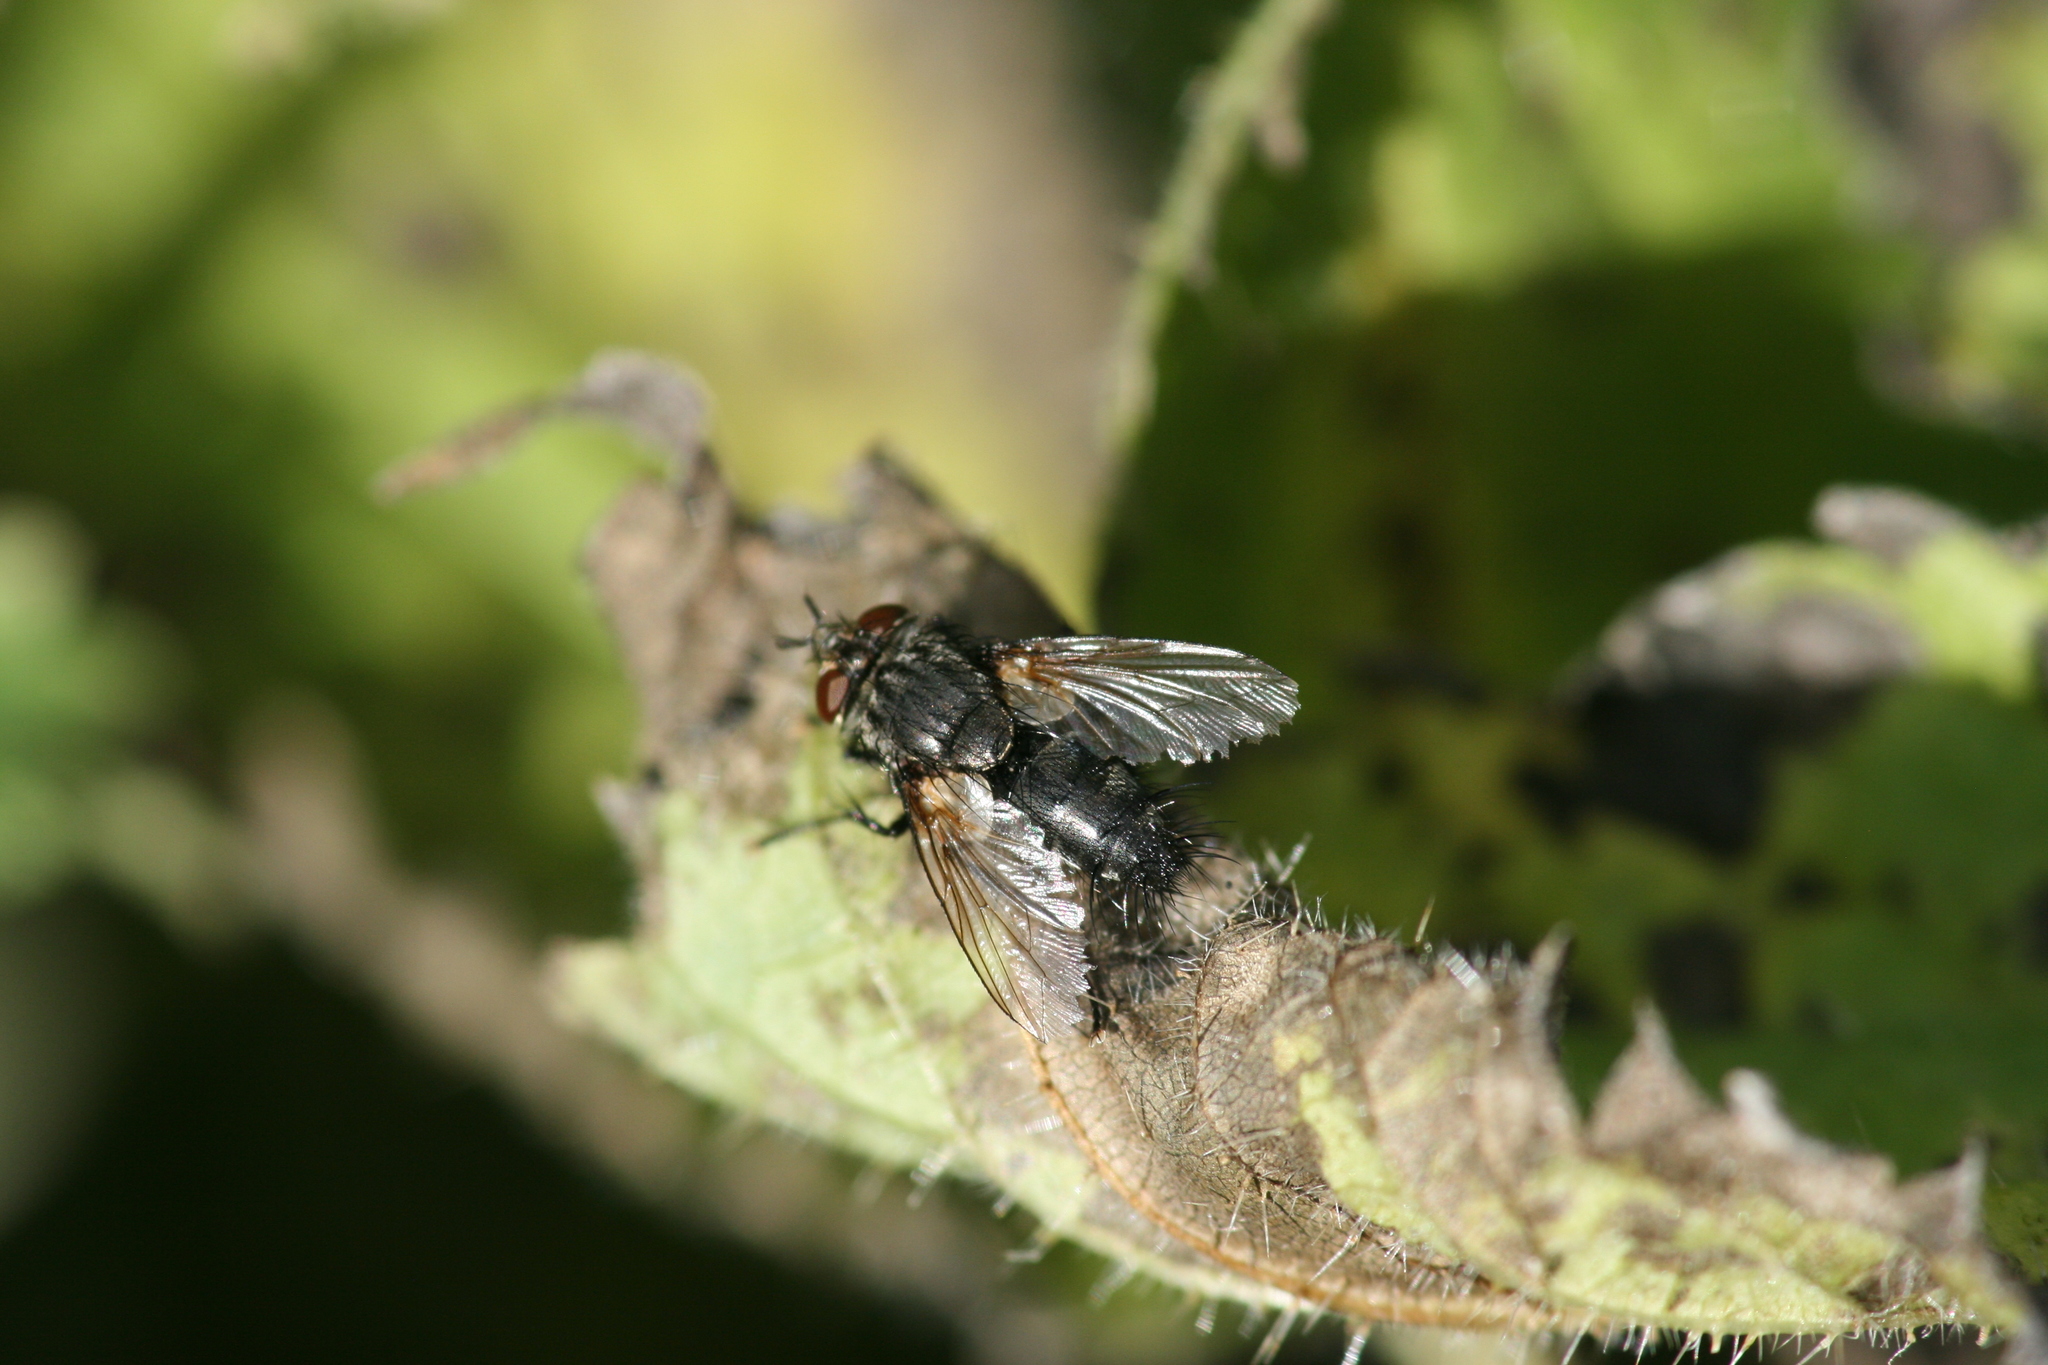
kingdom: Animalia
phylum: Arthropoda
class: Insecta
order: Diptera
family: Tachinidae
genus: Voria
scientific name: Voria ruralis
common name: Parasitic fly
